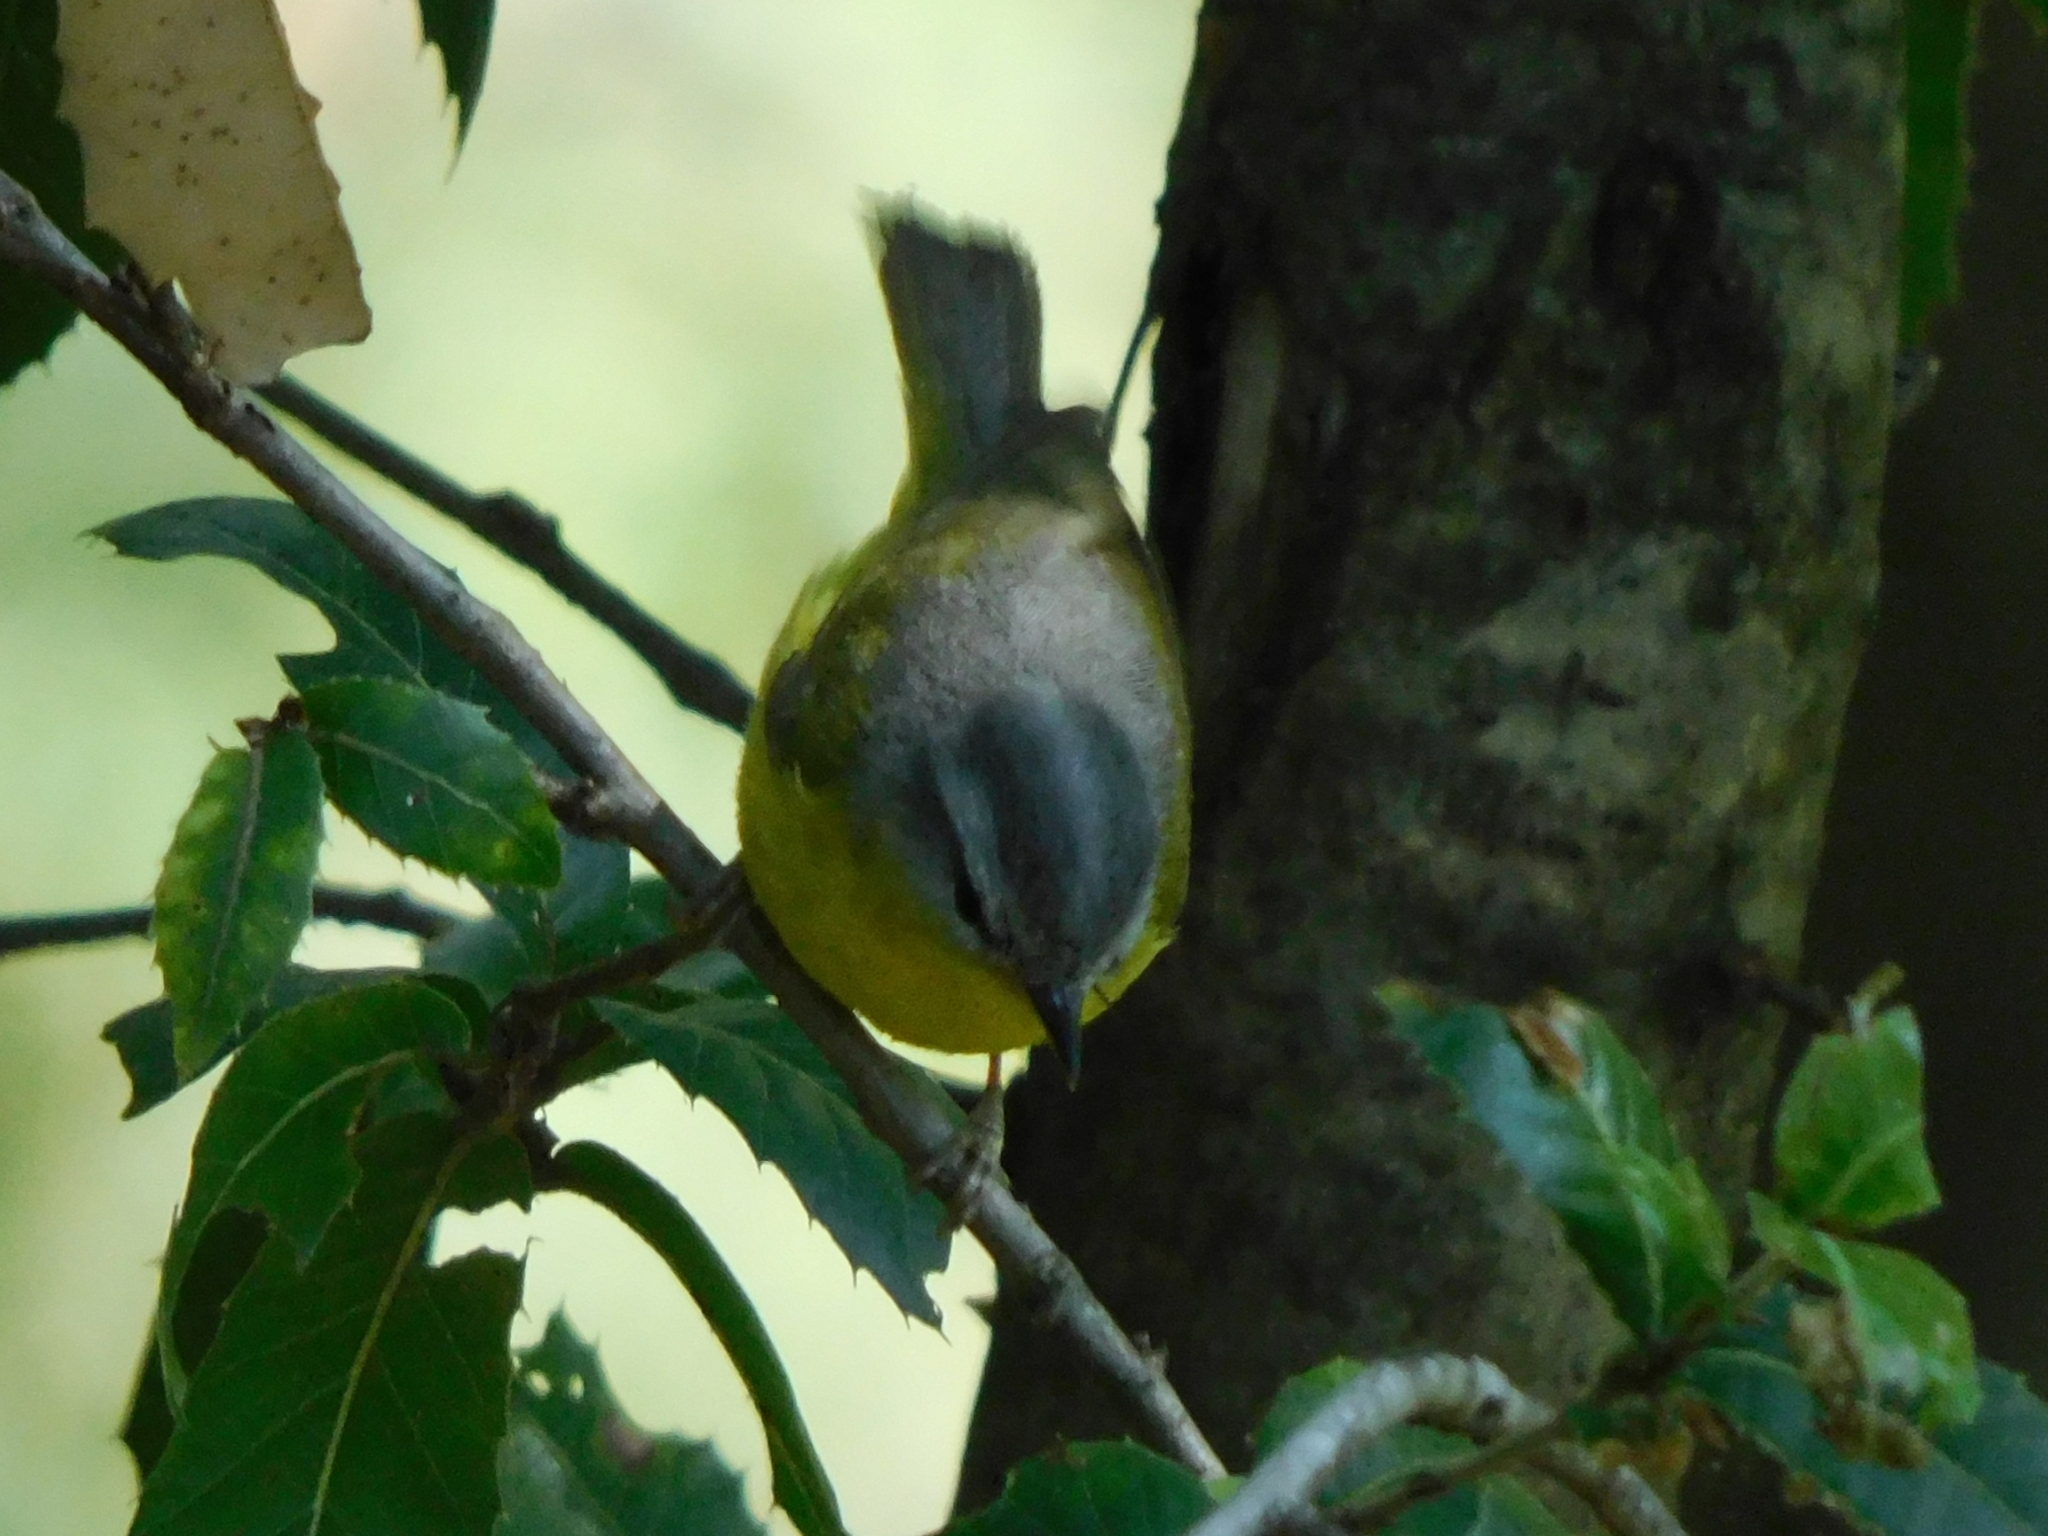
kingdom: Animalia
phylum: Chordata
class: Aves
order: Passeriformes
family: Phylloscopidae
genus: Phylloscopus
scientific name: Phylloscopus xanthoschistos
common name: Grey-hooded warbler
